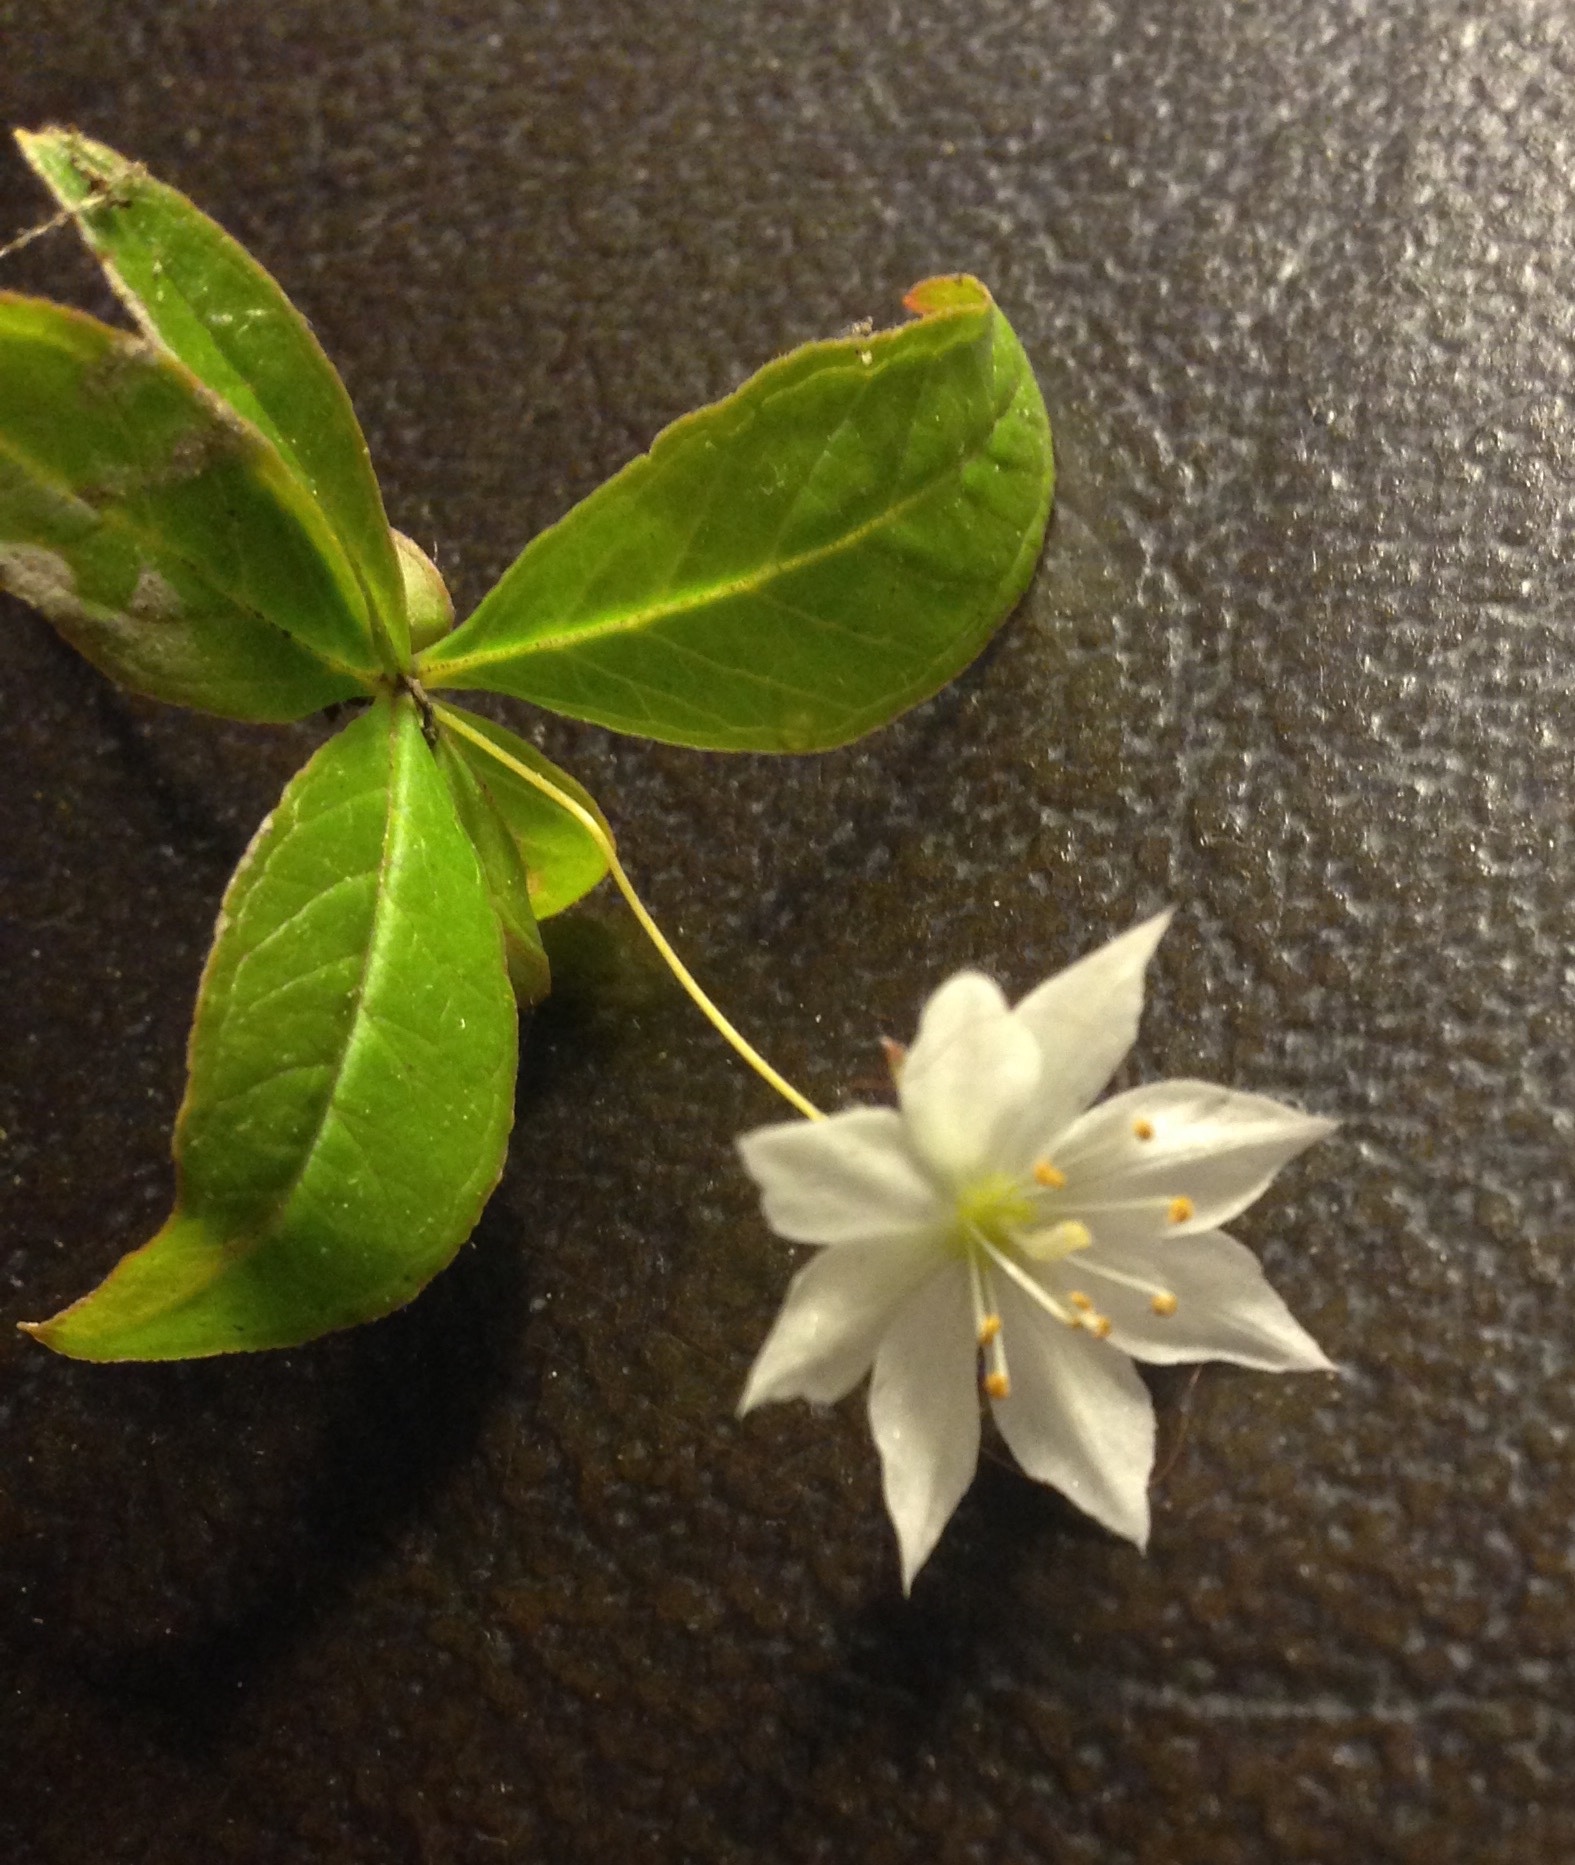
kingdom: Plantae
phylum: Tracheophyta
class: Magnoliopsida
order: Ericales
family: Primulaceae
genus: Lysimachia
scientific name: Lysimachia borealis
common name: American starflower
